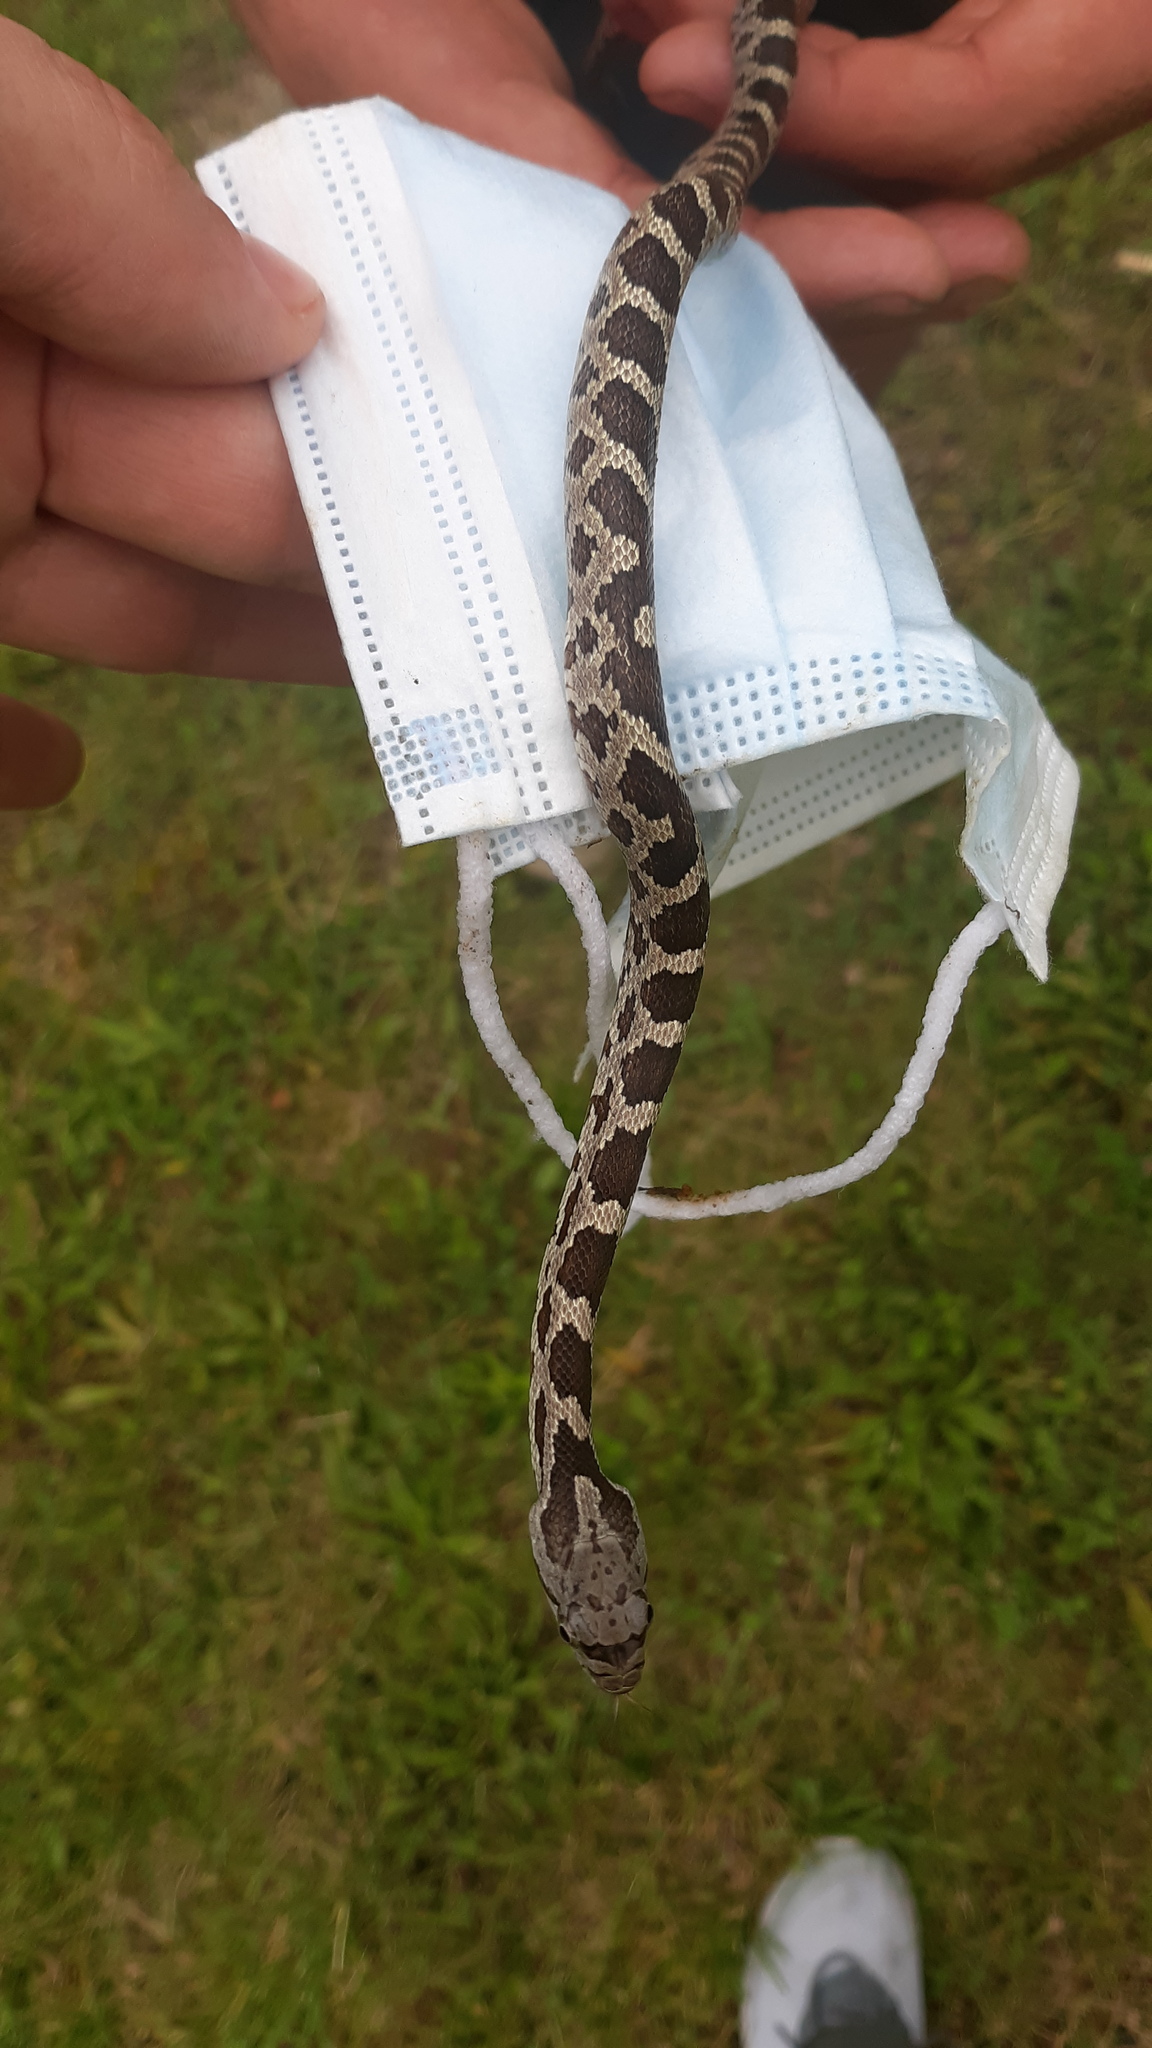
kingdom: Animalia
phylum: Chordata
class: Squamata
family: Colubridae
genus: Pantherophis
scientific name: Pantherophis spiloides
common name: Gray rat snake
